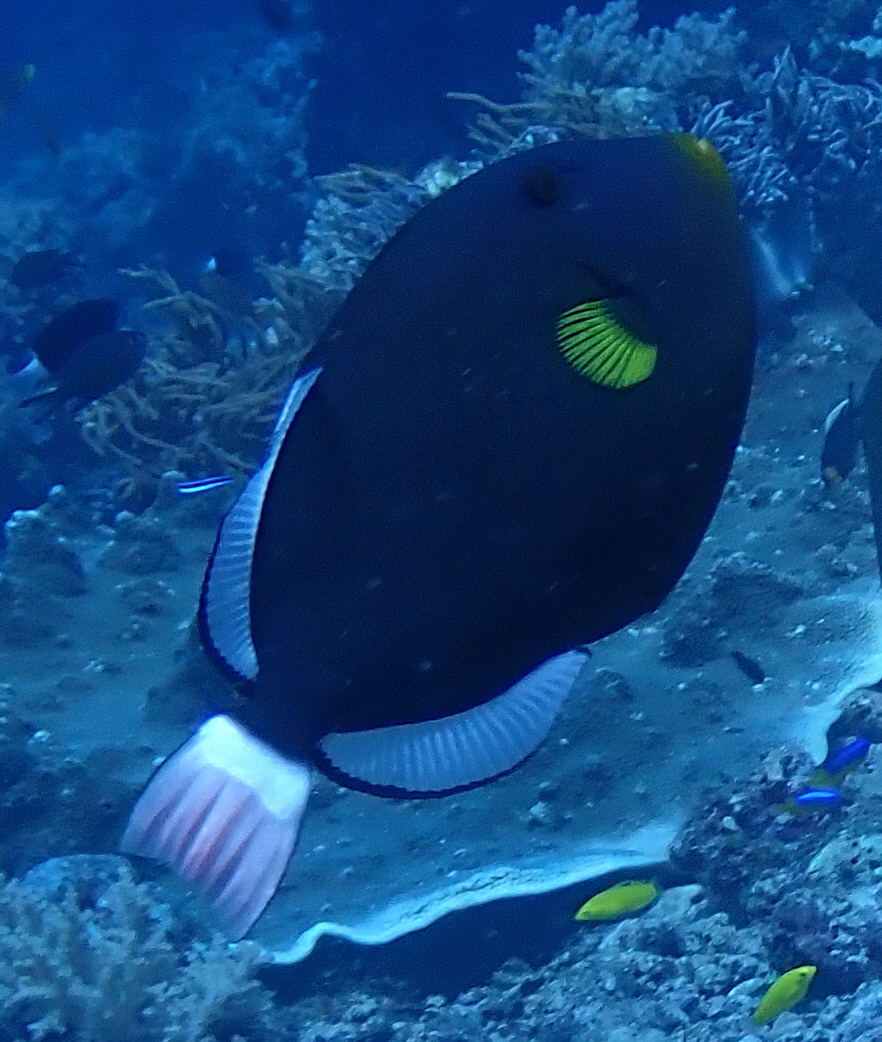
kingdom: Animalia
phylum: Chordata
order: Tetraodontiformes
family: Balistidae
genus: Melichthys
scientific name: Melichthys vidua
